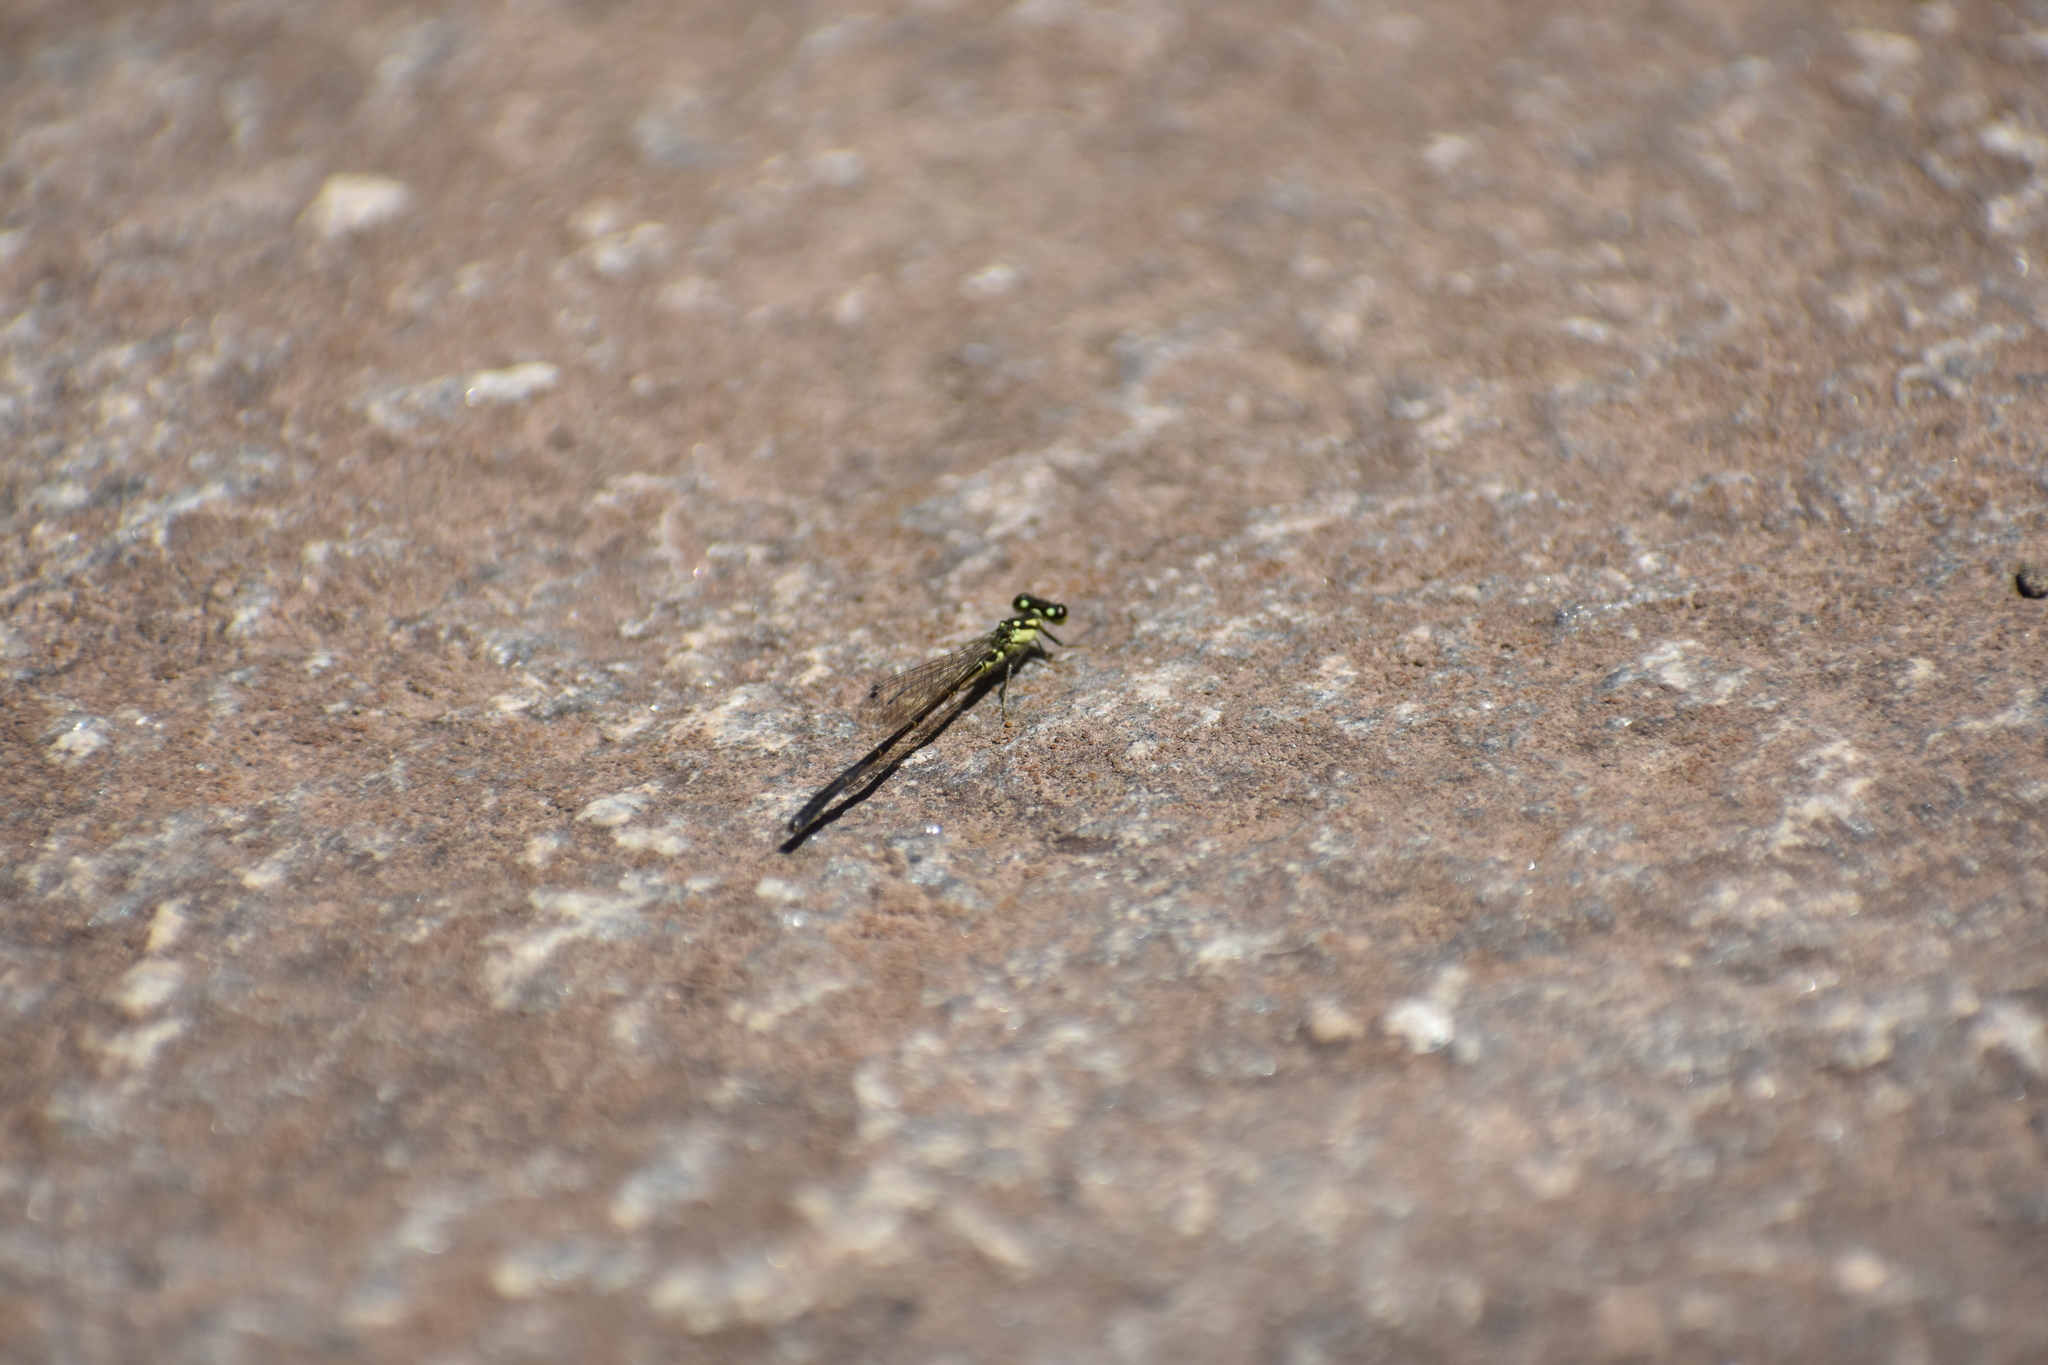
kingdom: Animalia
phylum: Arthropoda
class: Insecta
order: Odonata
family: Coenagrionidae
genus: Ischnura
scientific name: Ischnura posita
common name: Fragile forktail
